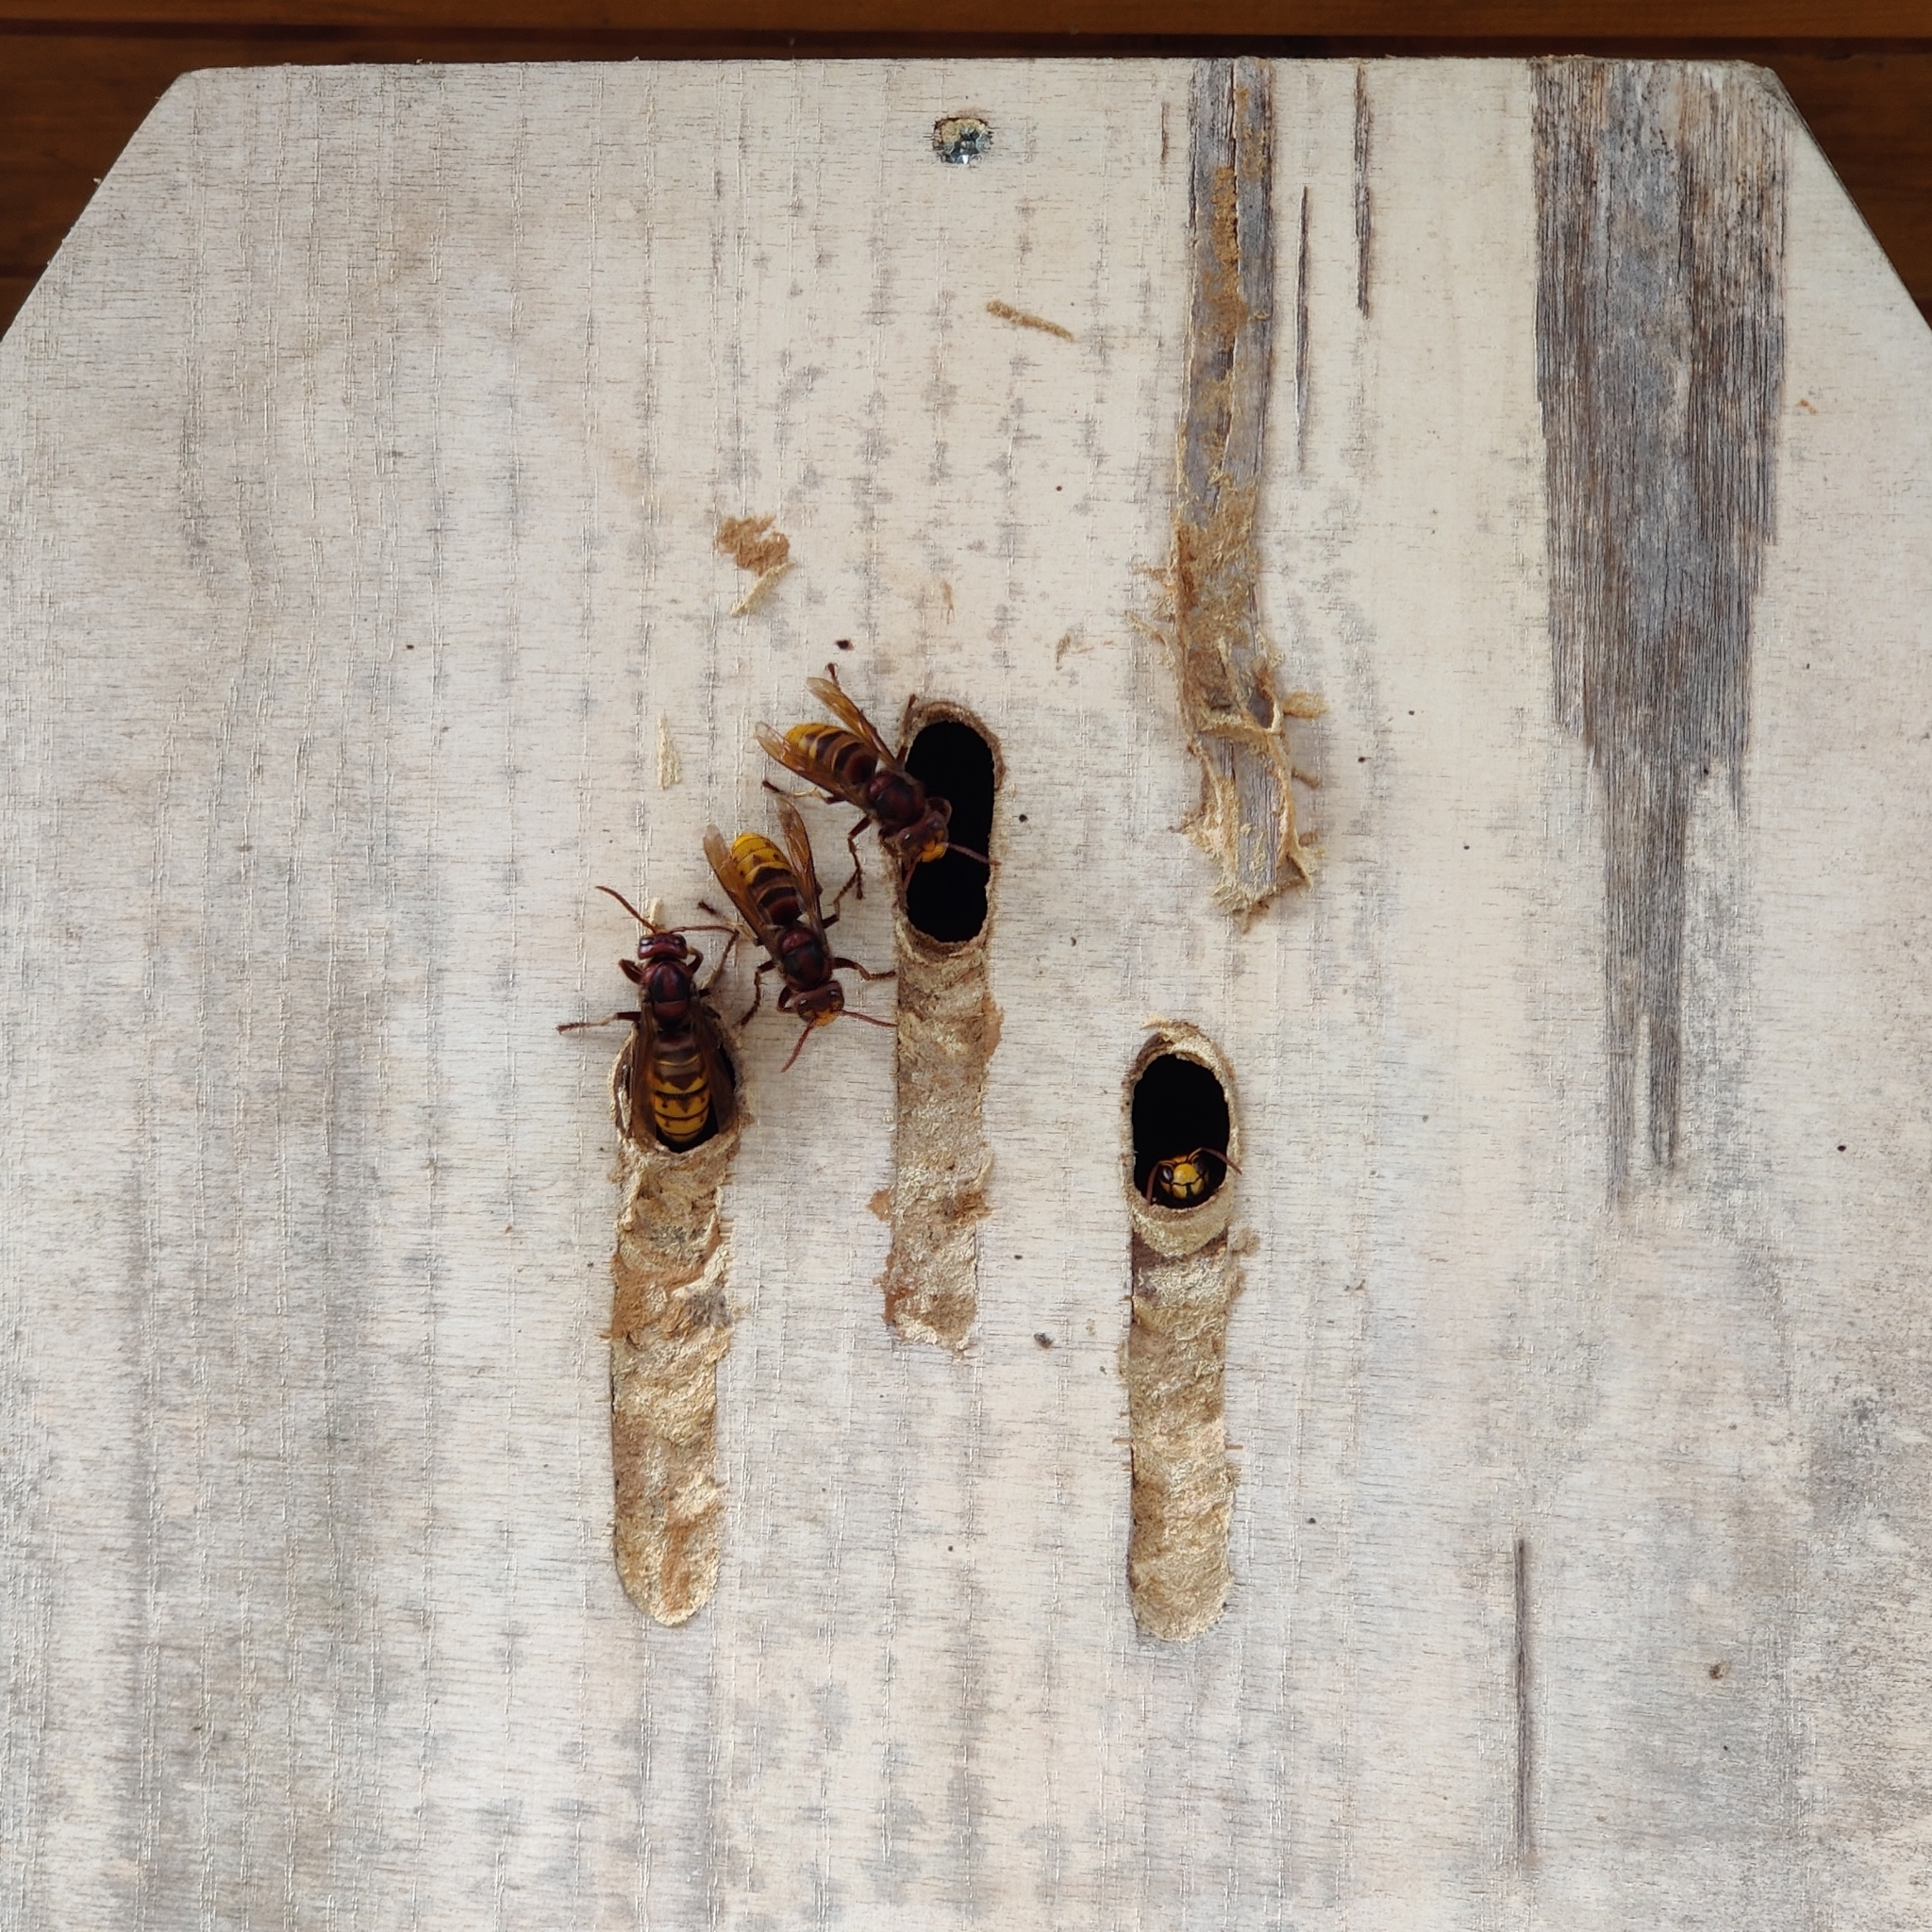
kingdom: Animalia
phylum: Arthropoda
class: Insecta
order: Hymenoptera
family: Vespidae
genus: Vespa
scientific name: Vespa crabro
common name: Hornet
